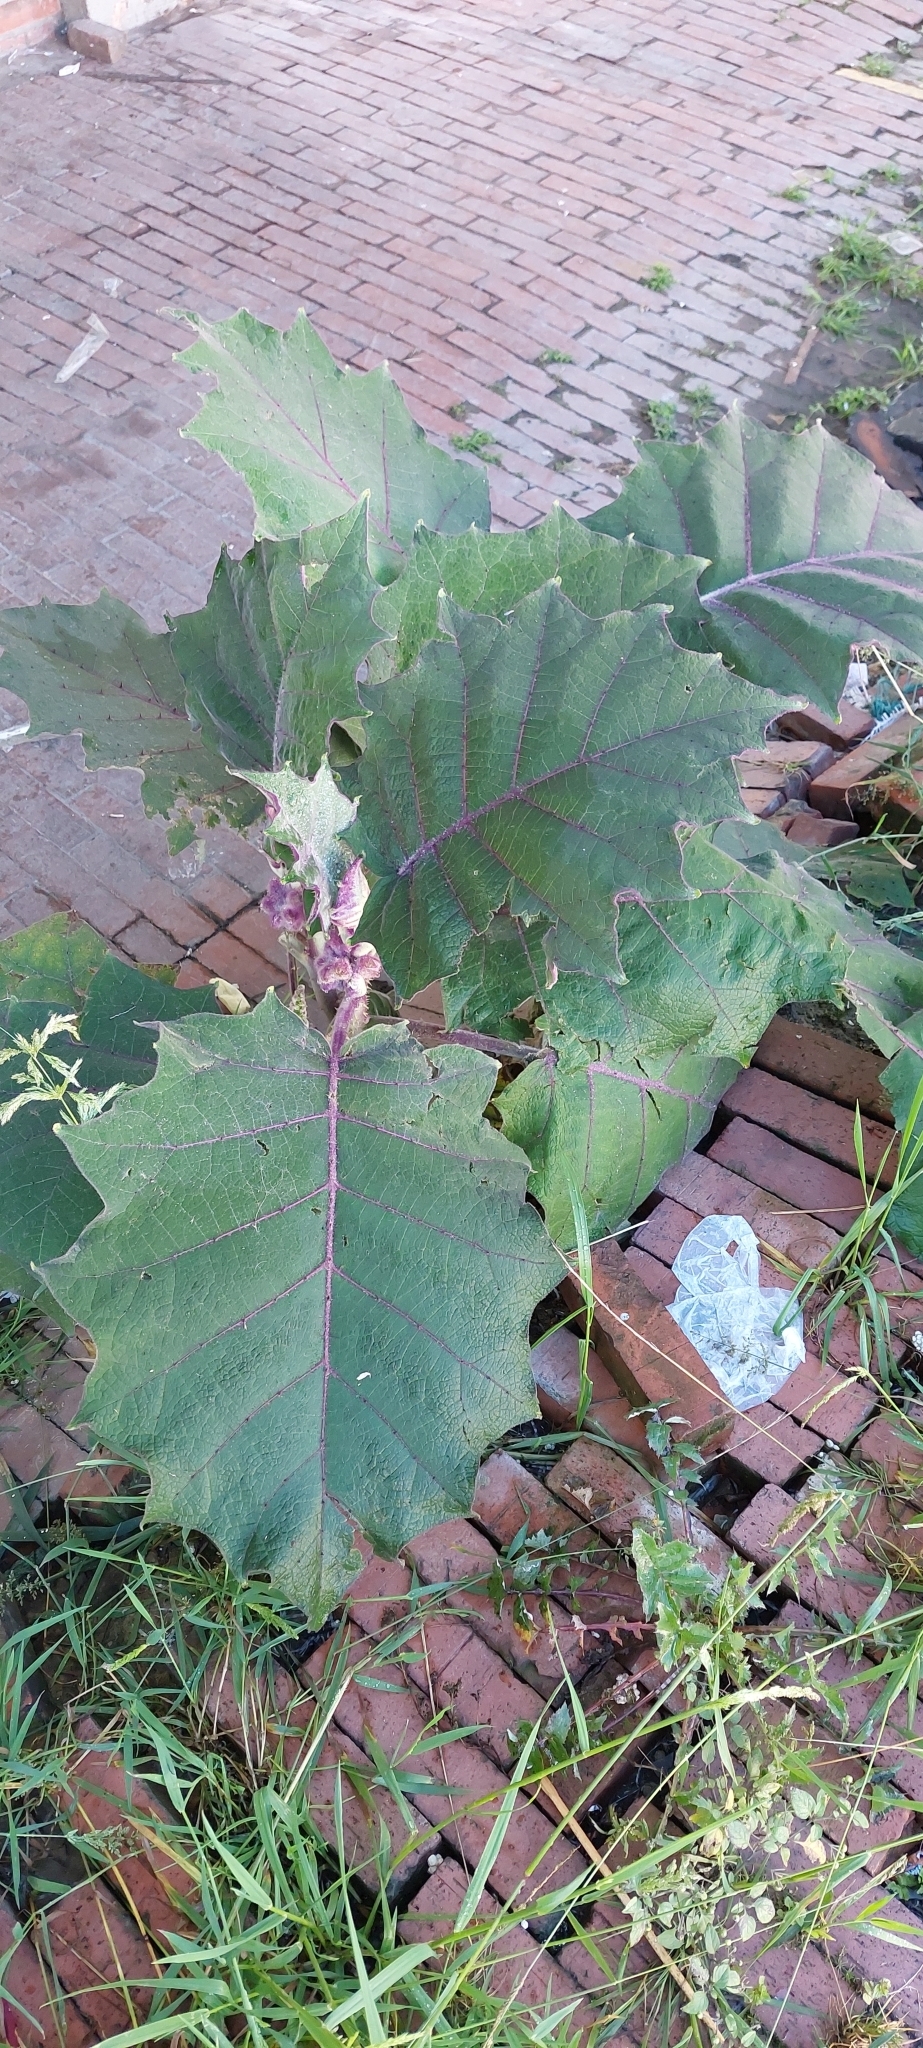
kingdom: Plantae
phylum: Tracheophyta
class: Magnoliopsida
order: Solanales
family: Solanaceae
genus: Solanum
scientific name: Solanum quitoense
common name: Quito-orange
